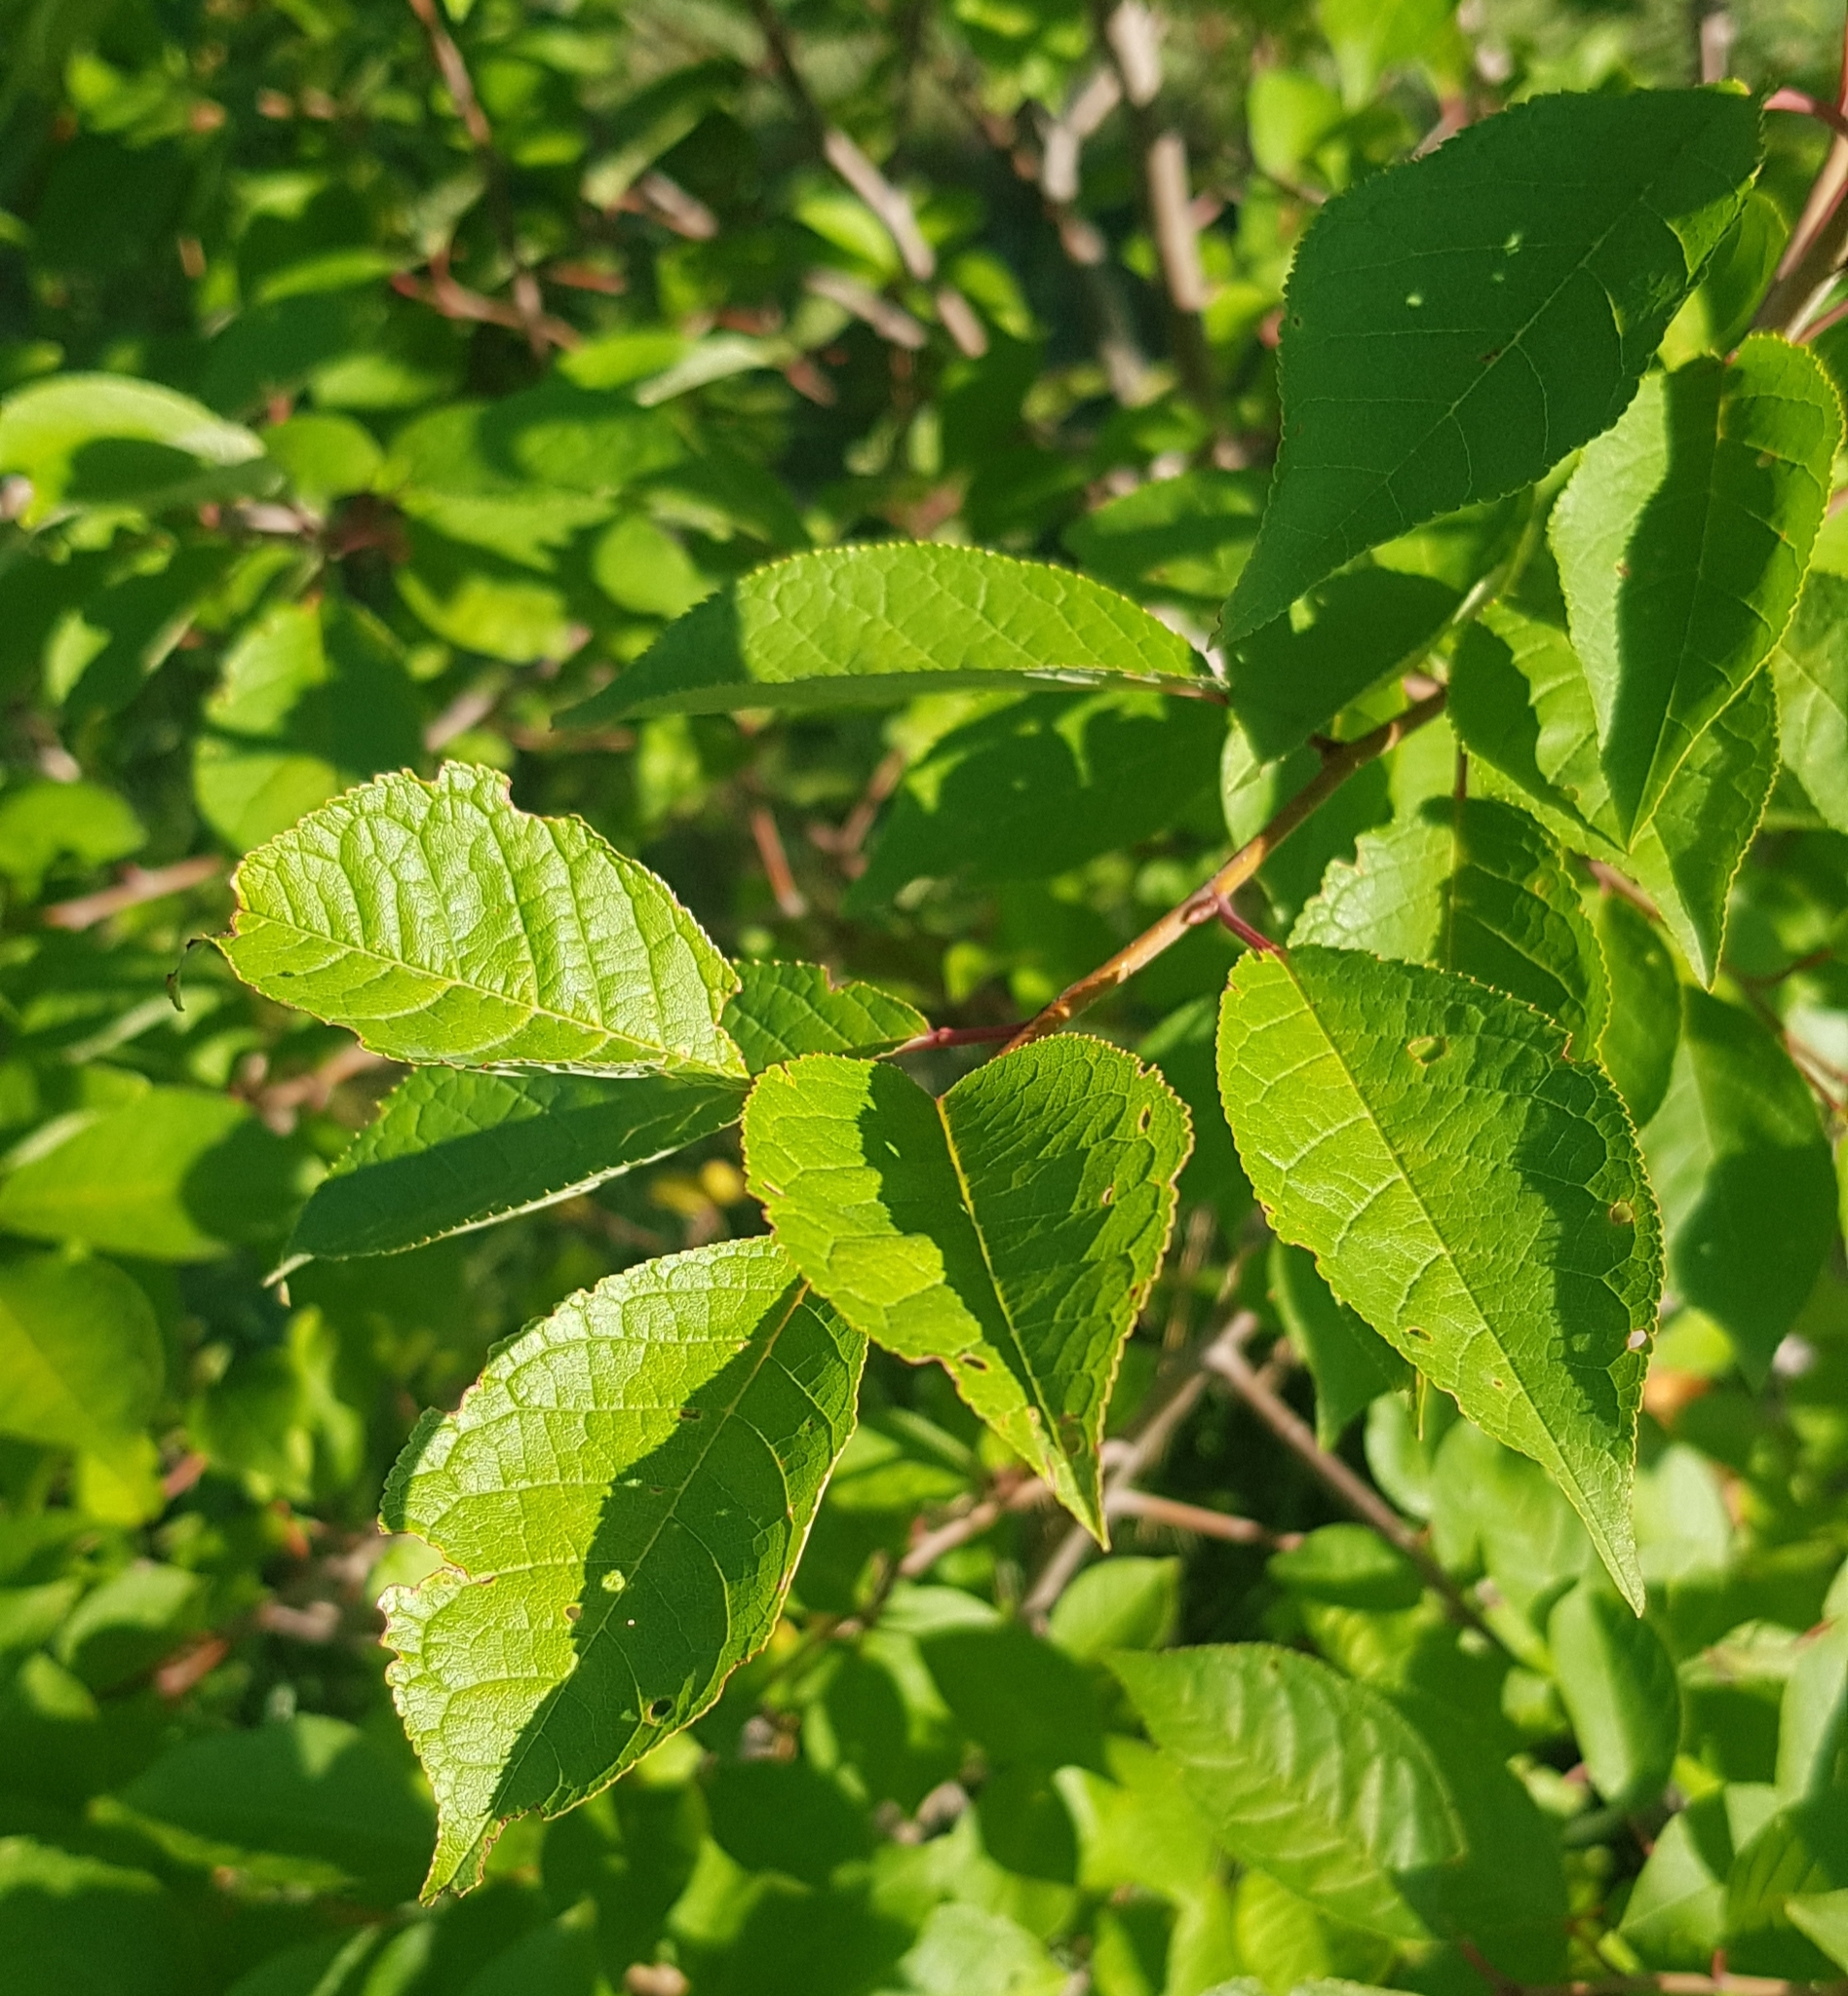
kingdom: Plantae
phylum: Tracheophyta
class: Magnoliopsida
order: Rosales
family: Rosaceae
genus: Prunus
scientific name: Prunus padus
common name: Bird cherry
